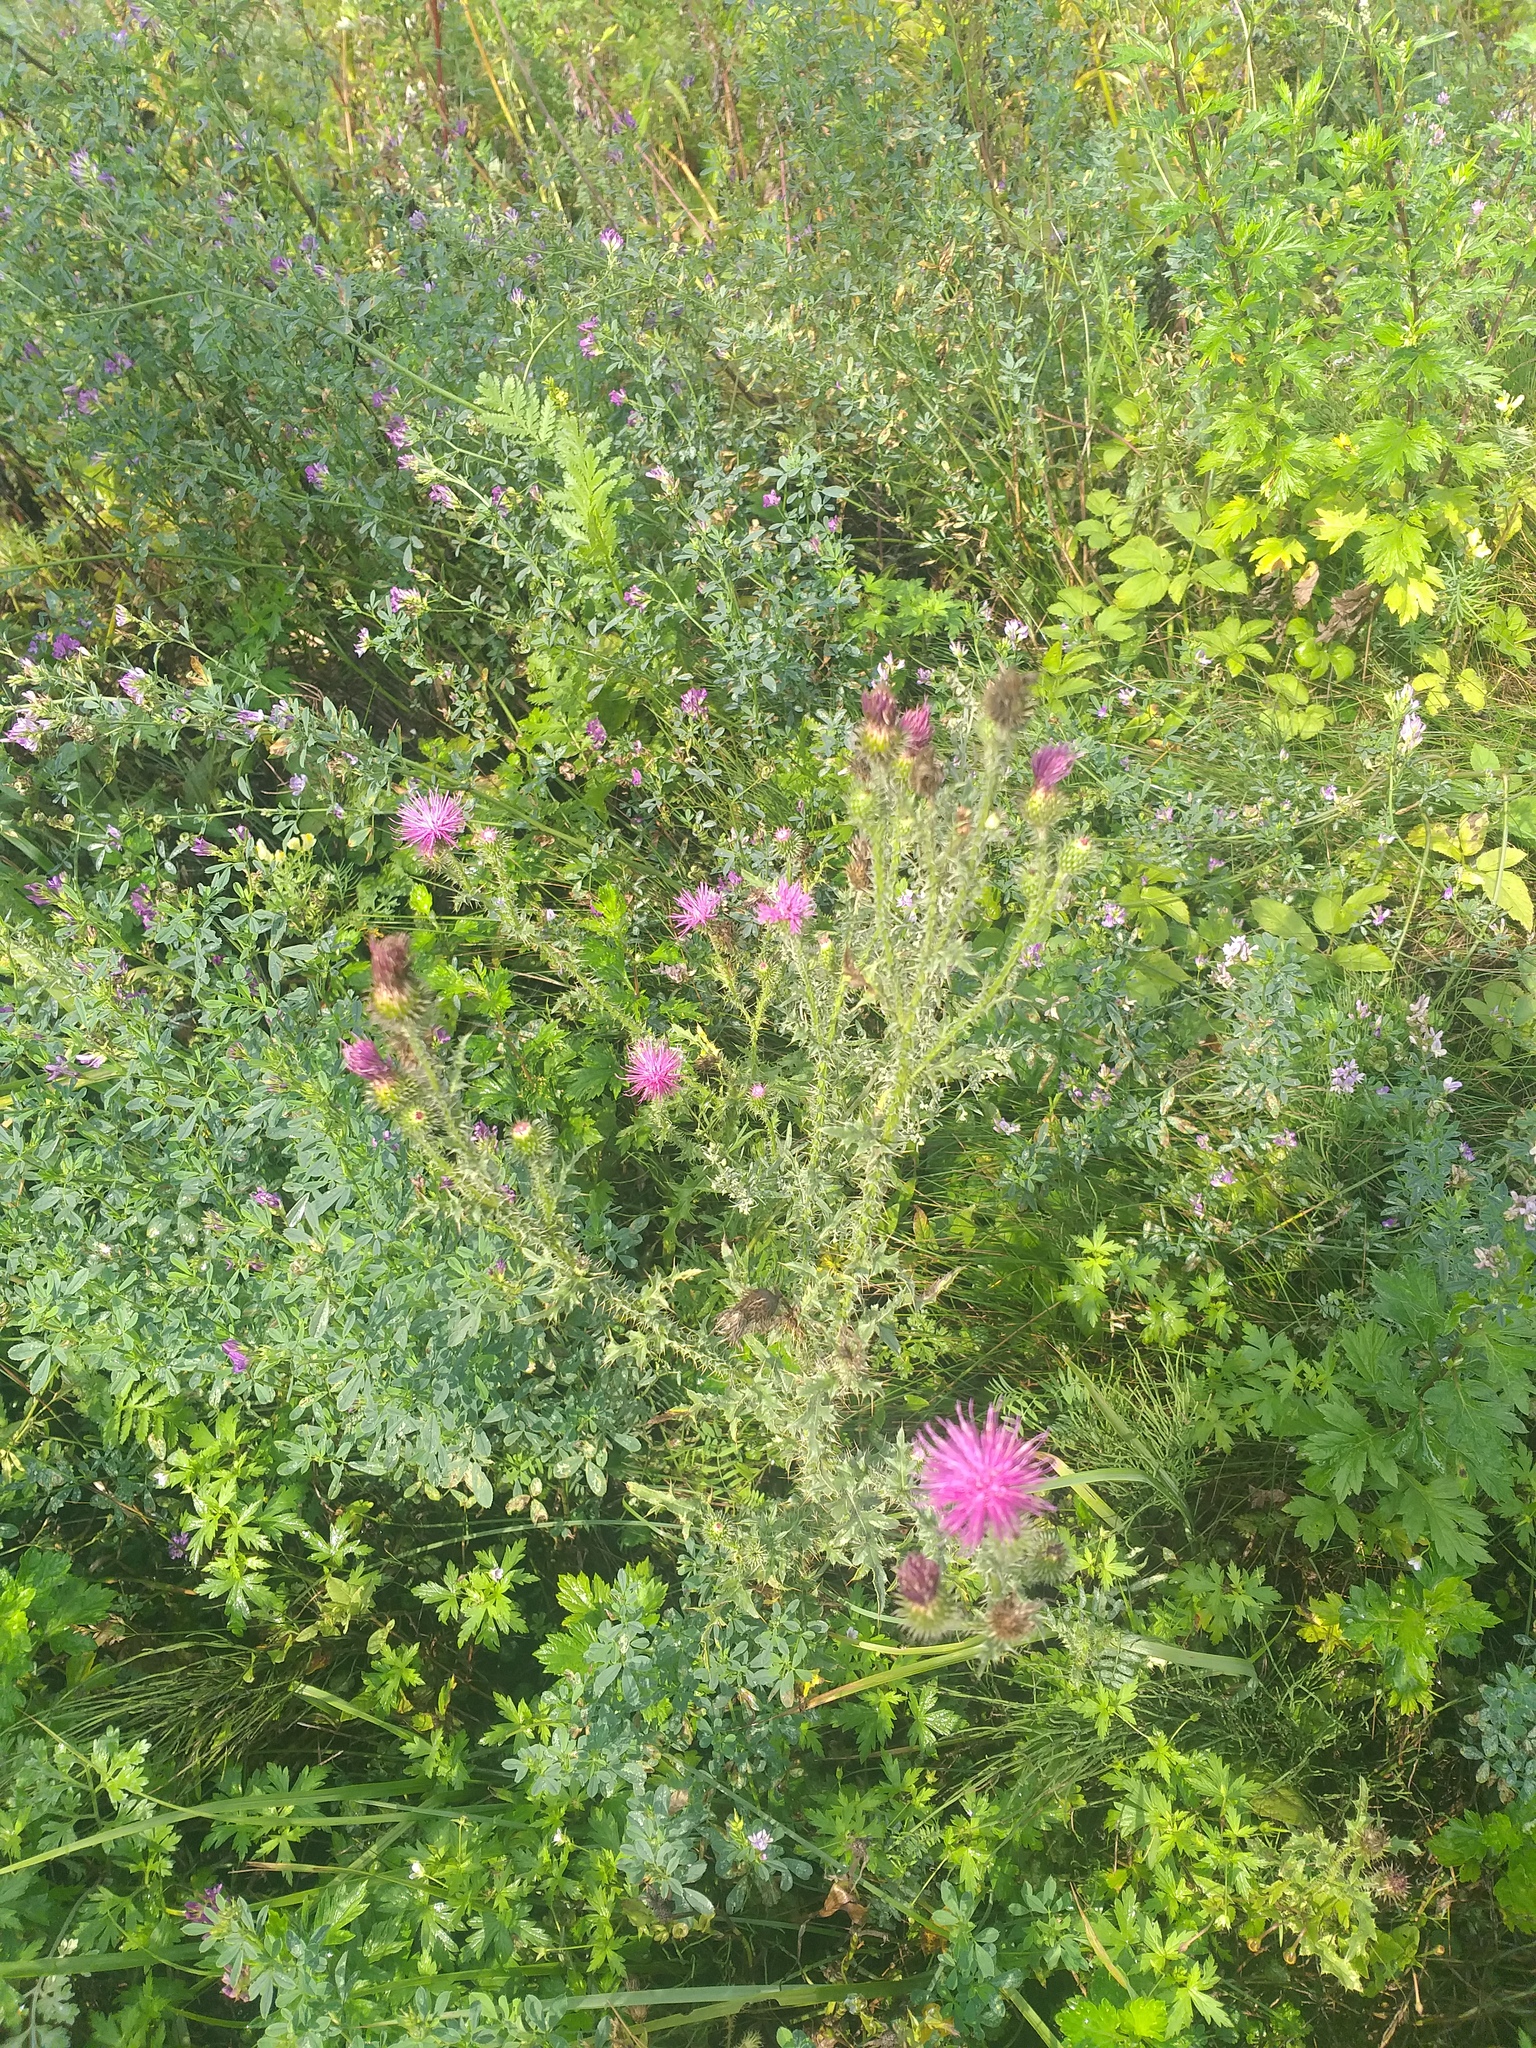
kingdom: Plantae
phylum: Tracheophyta
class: Magnoliopsida
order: Asterales
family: Asteraceae
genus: Carduus
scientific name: Carduus acanthoides
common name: Plumeless thistle
